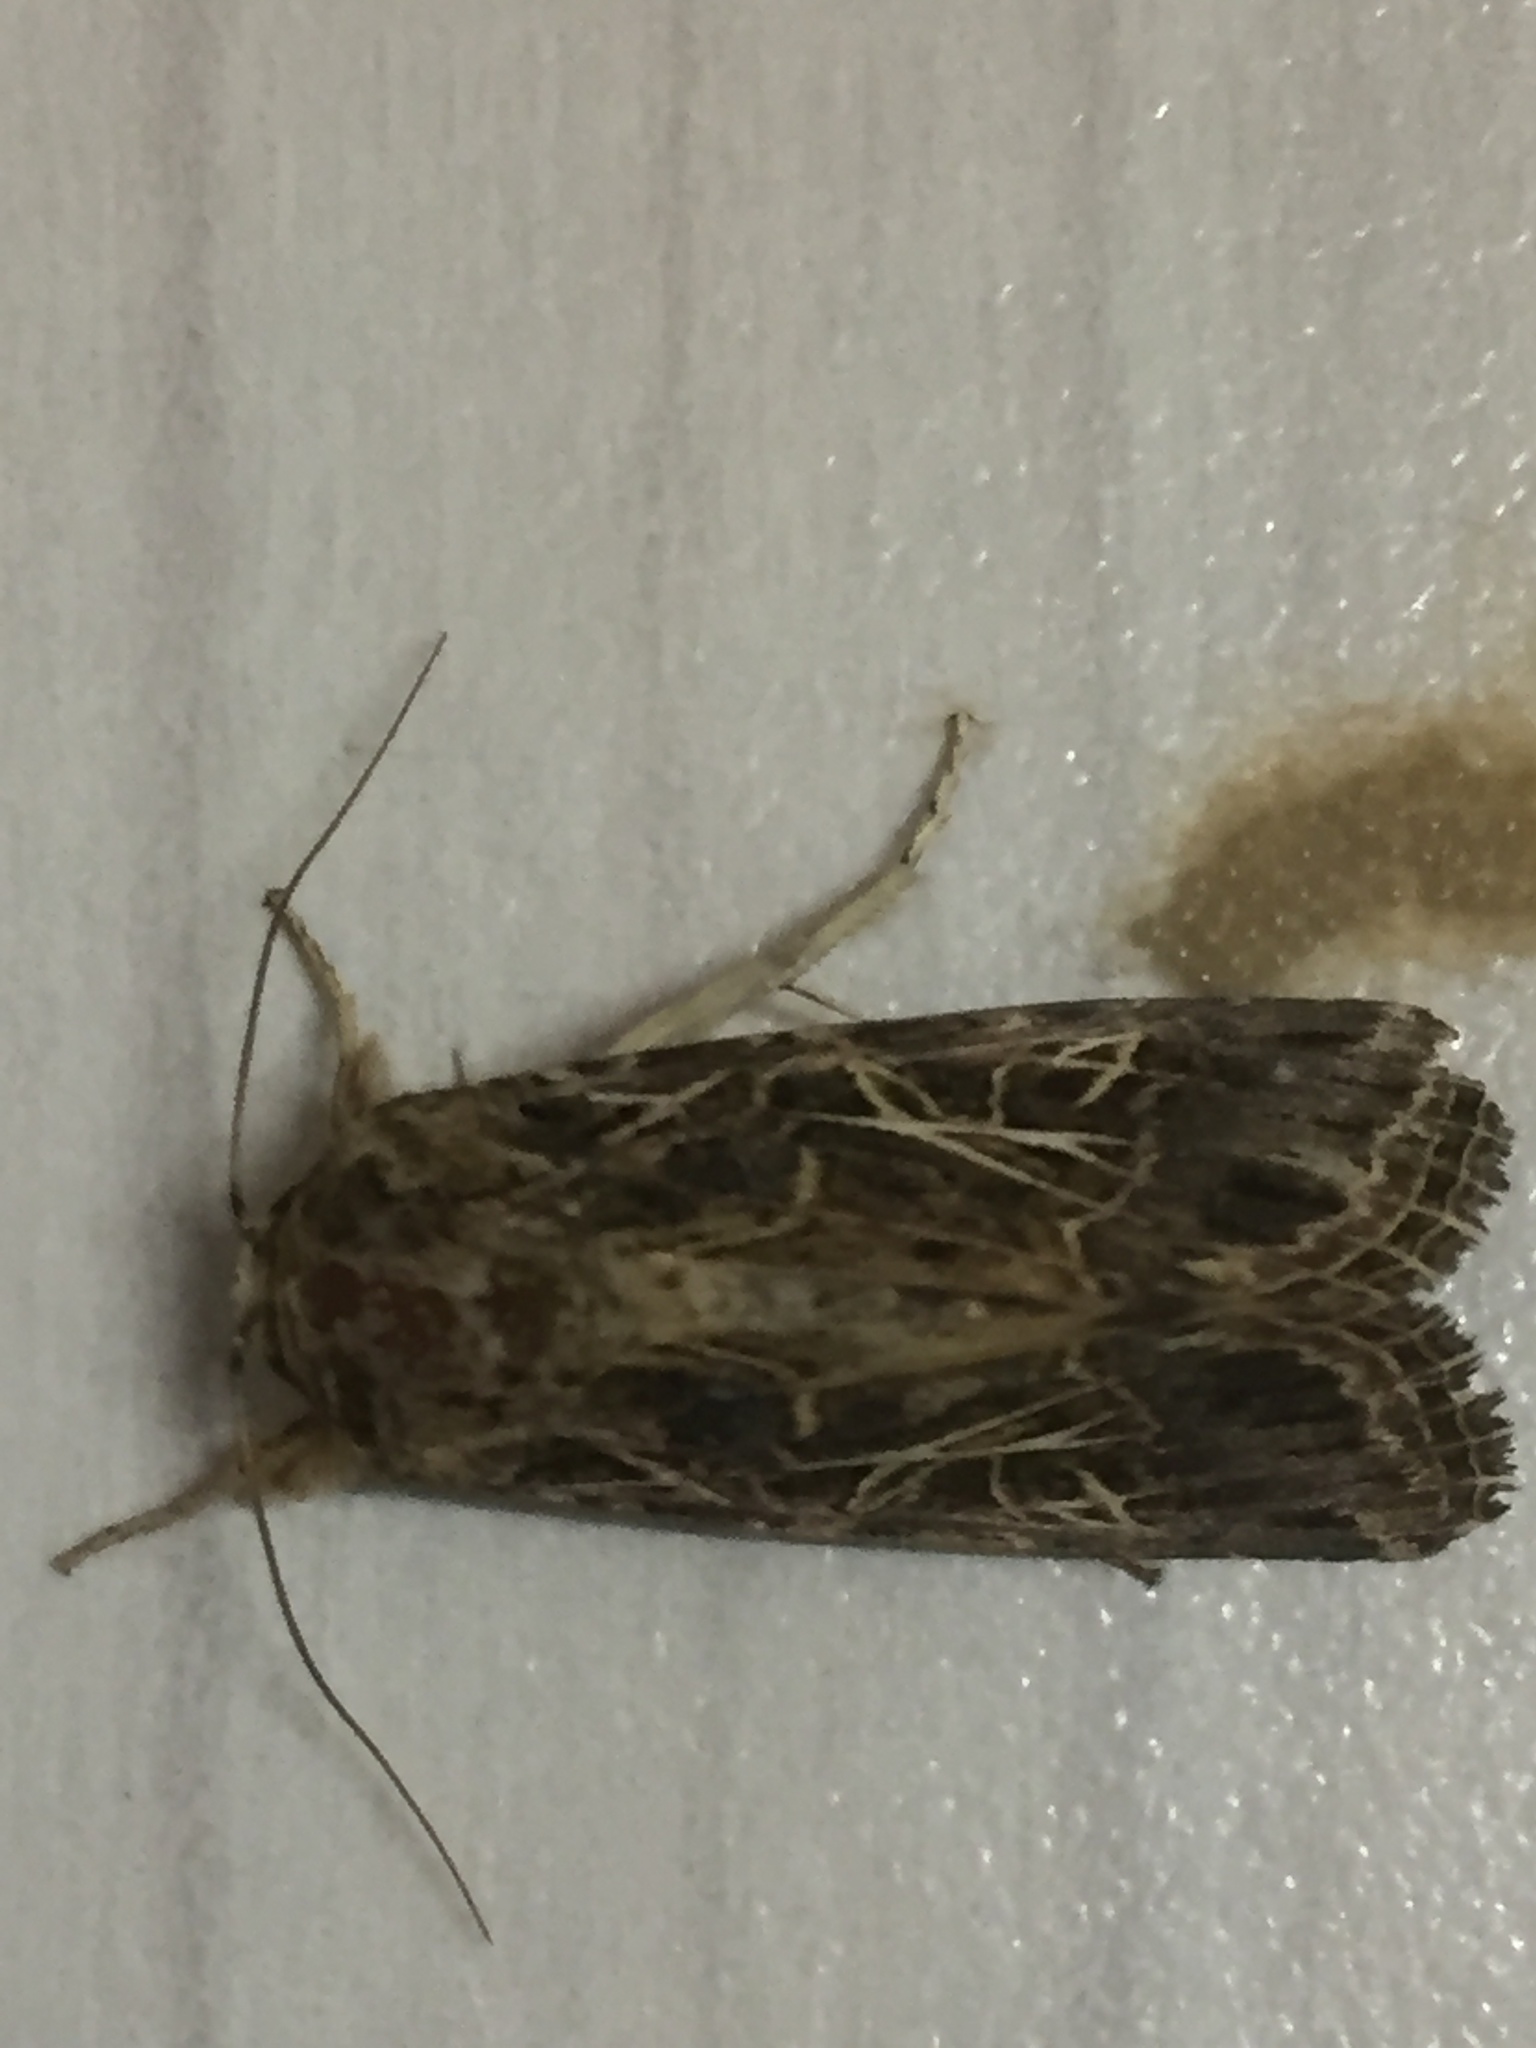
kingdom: Animalia
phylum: Arthropoda
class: Insecta
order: Lepidoptera
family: Noctuidae
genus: Spodoptera
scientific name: Spodoptera littoralis
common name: Egyptian cotton leafworm
